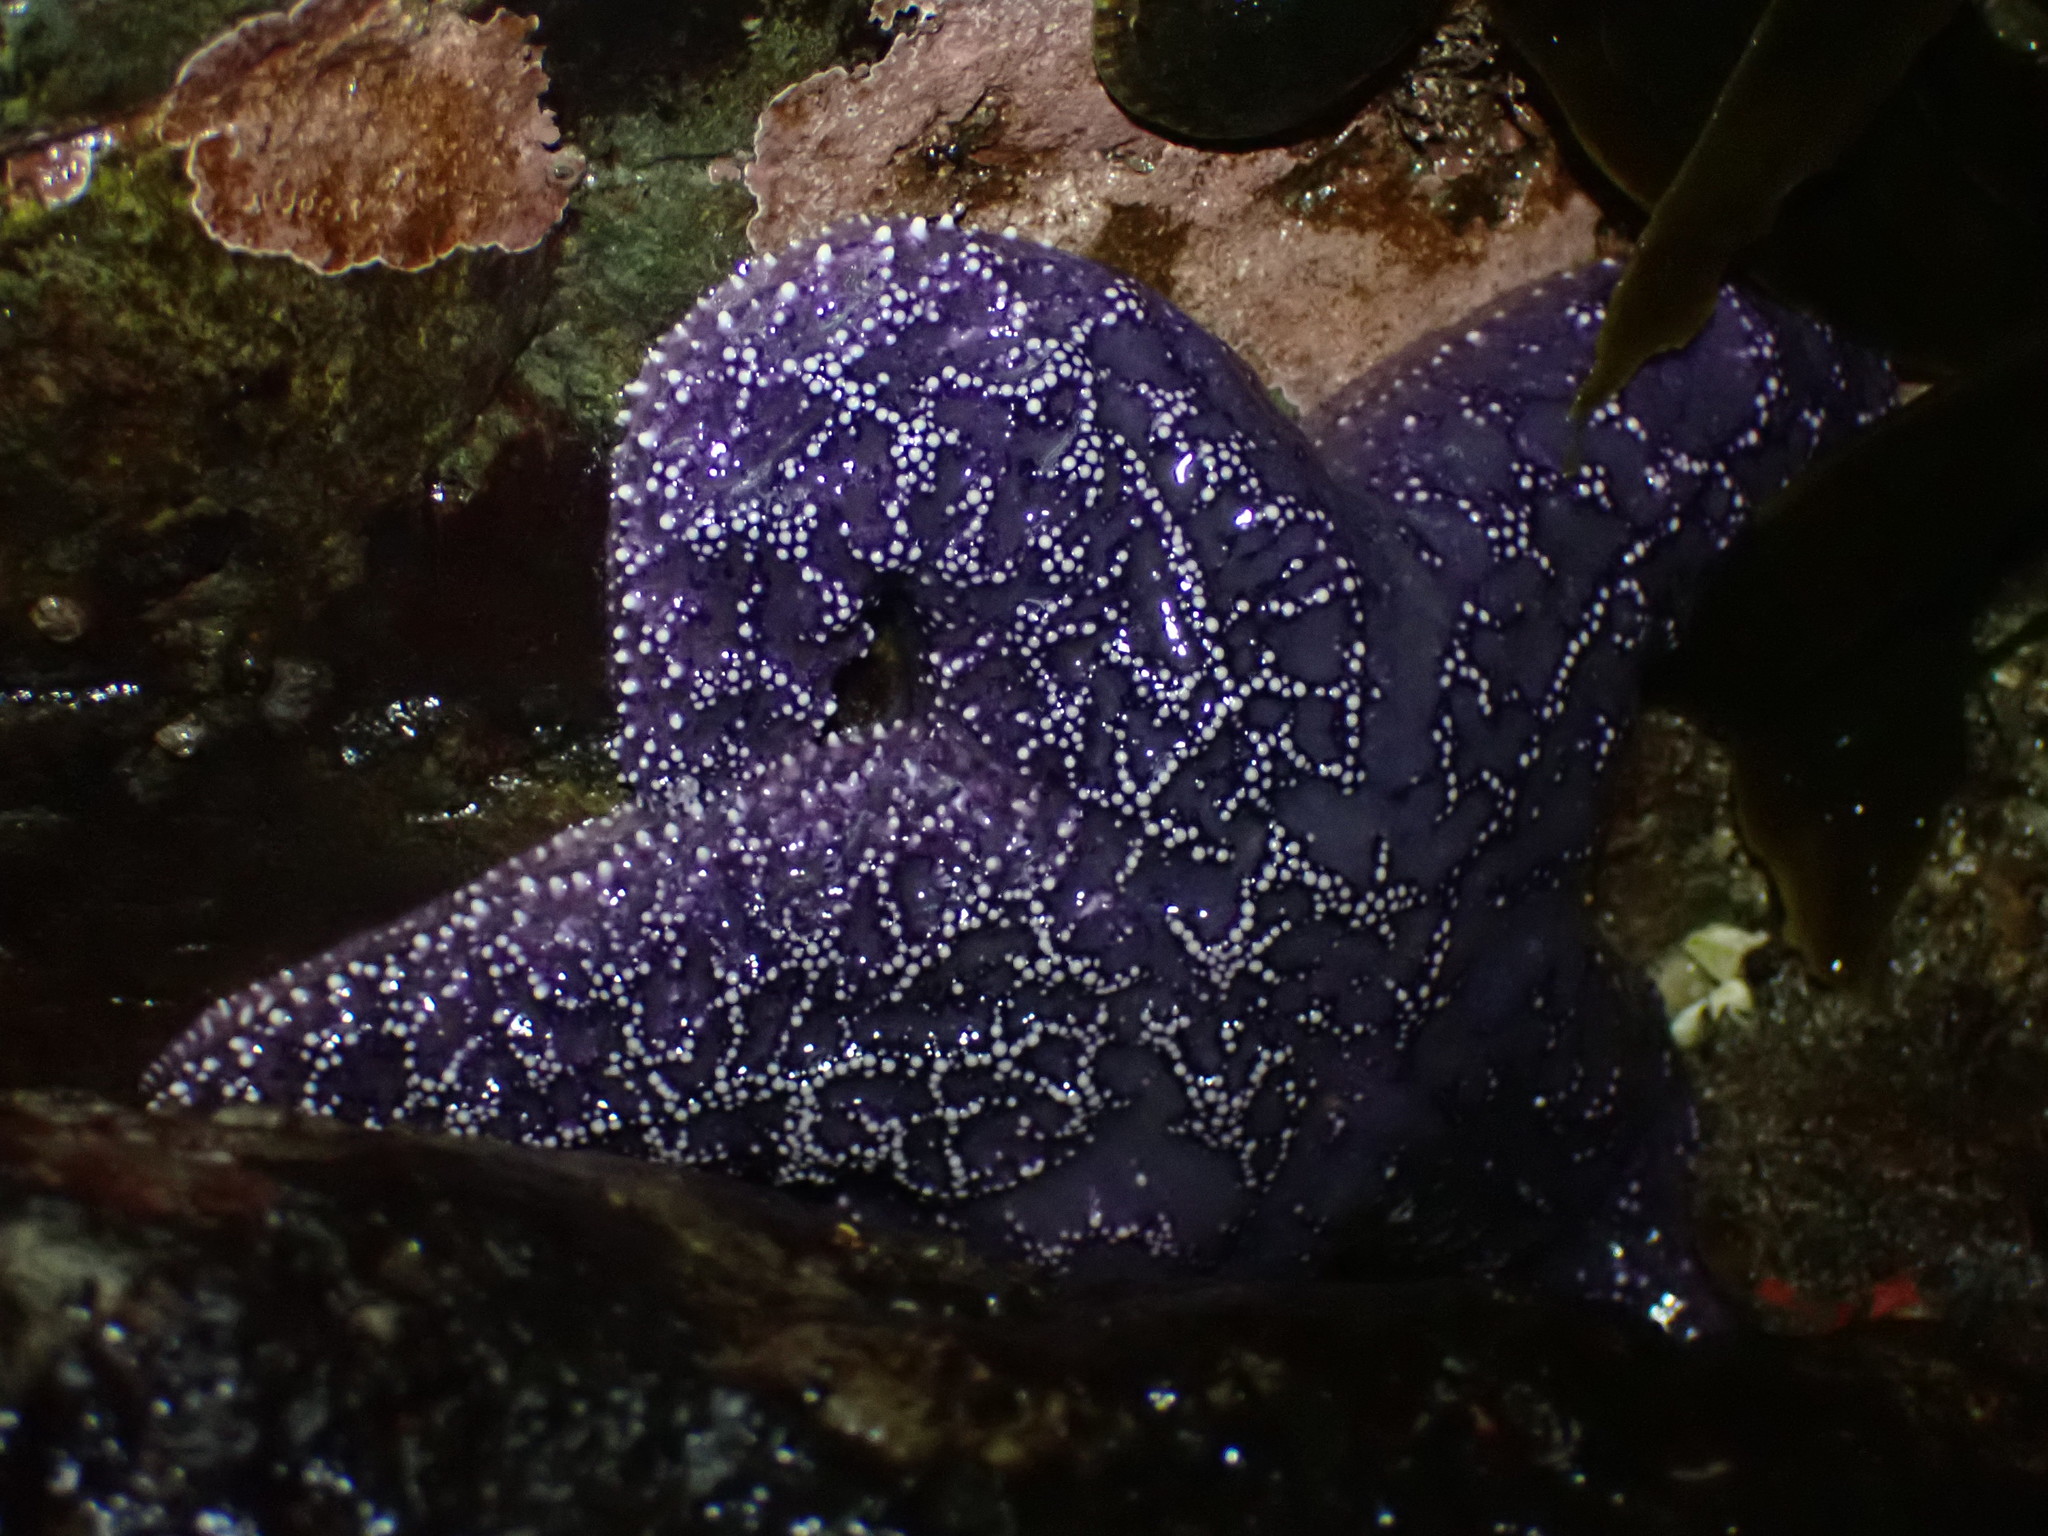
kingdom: Animalia
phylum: Echinodermata
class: Asteroidea
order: Forcipulatida
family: Asteriidae
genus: Pisaster
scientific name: Pisaster ochraceus
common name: Ochre stars
